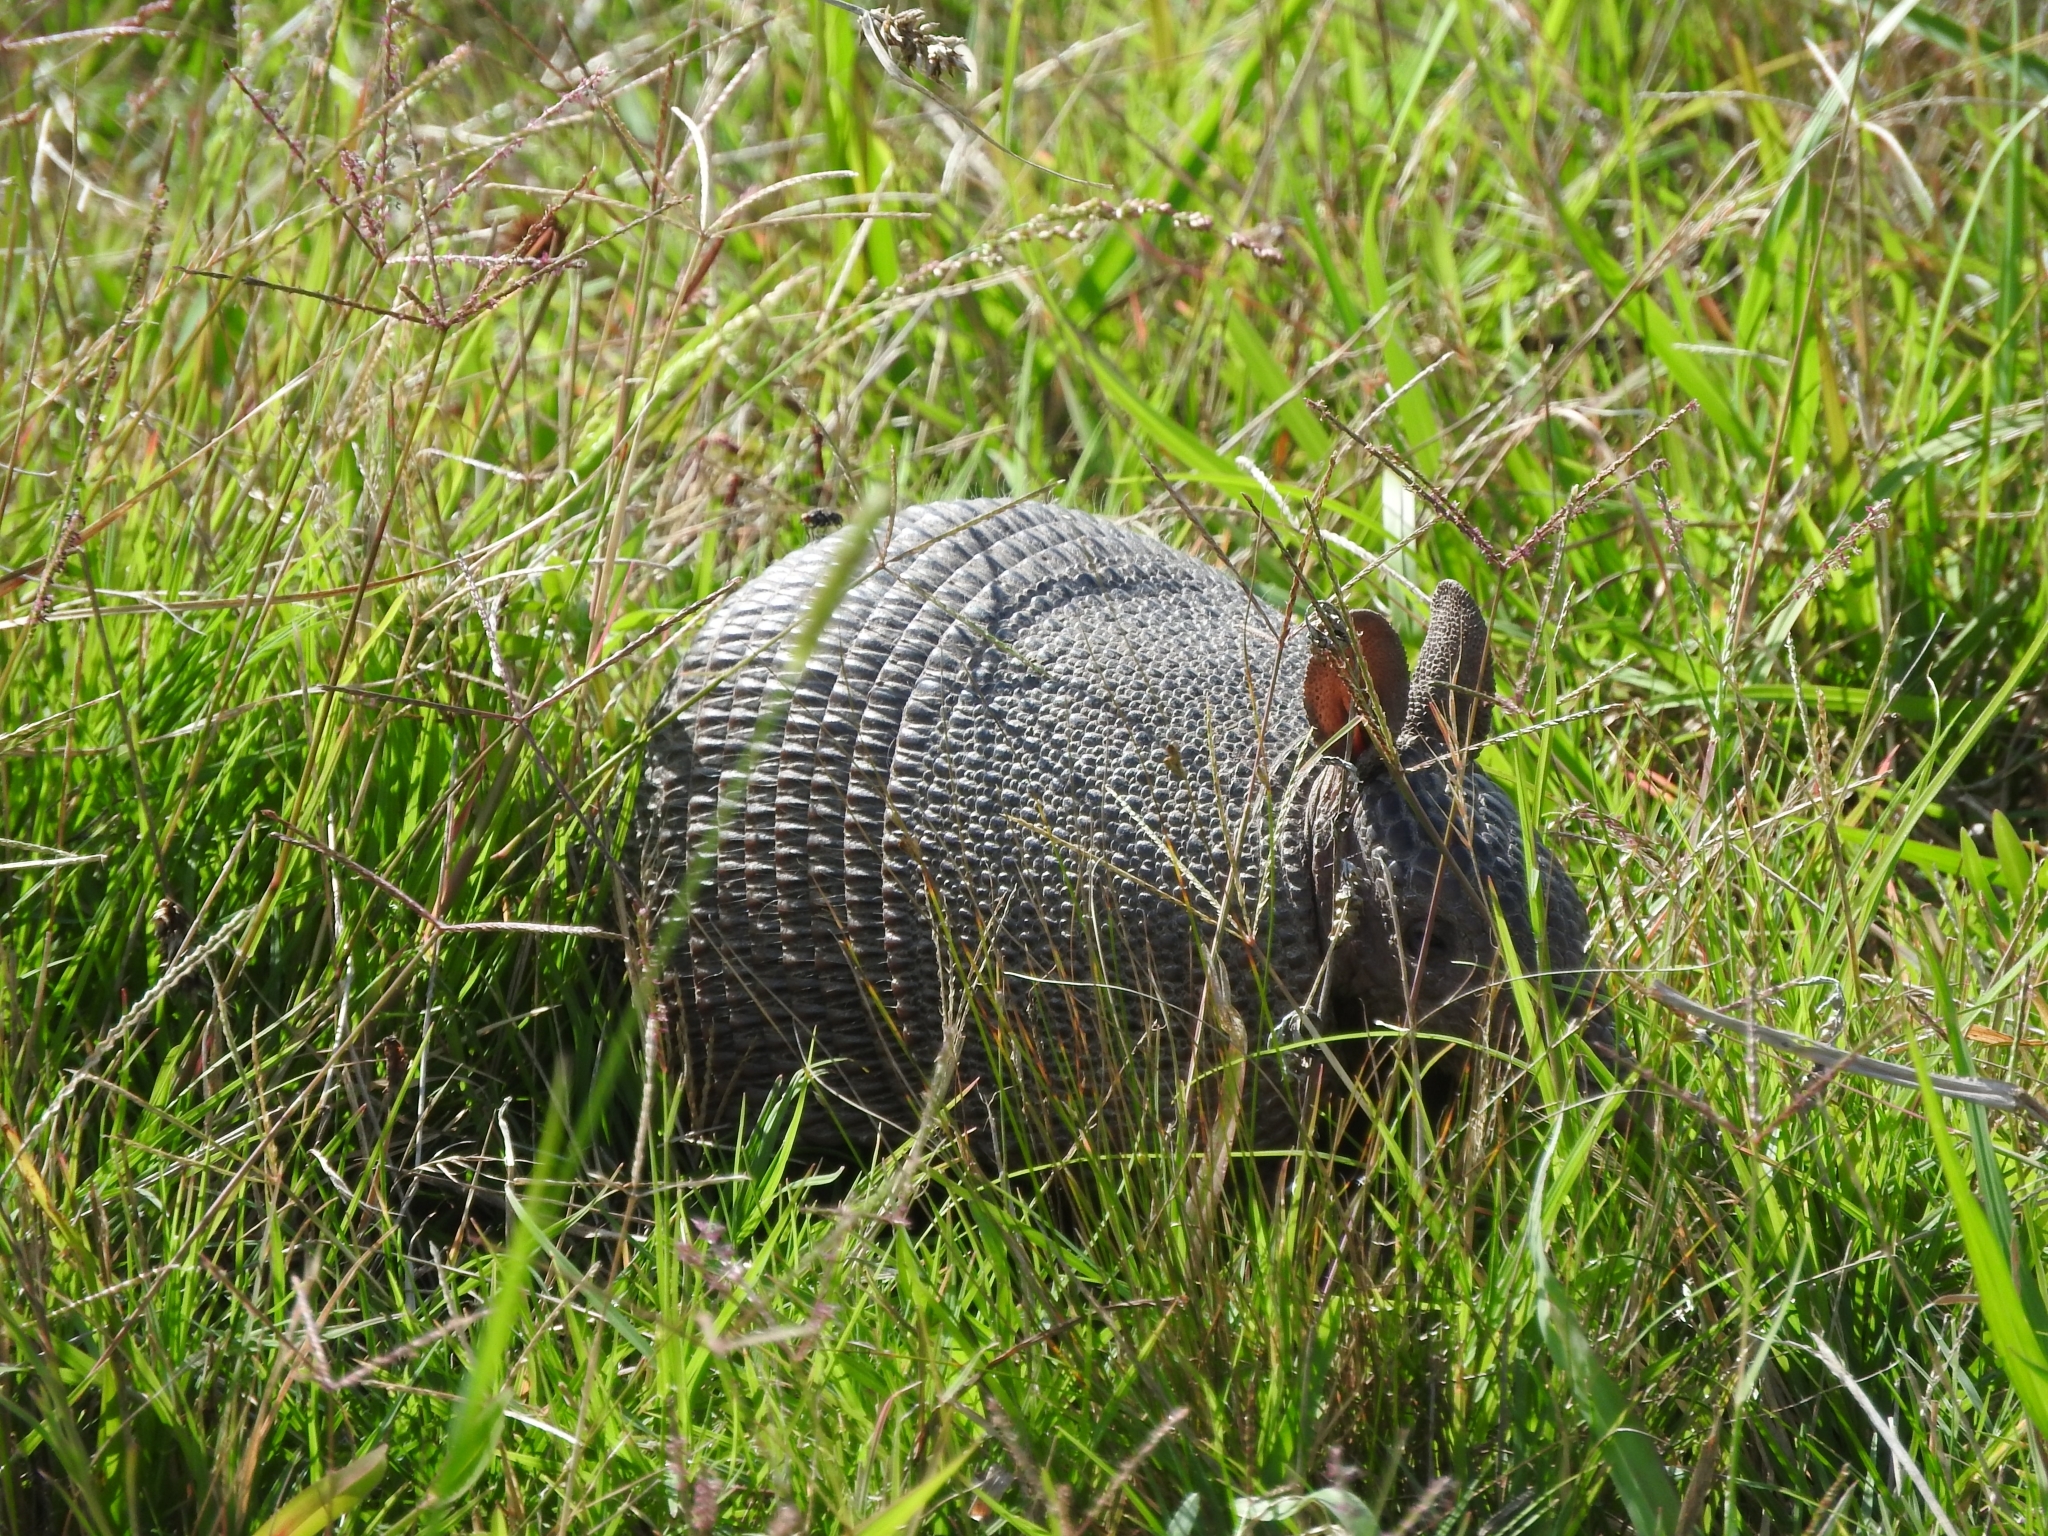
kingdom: Animalia
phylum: Chordata
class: Mammalia
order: Cingulata
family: Dasypodidae
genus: Dasypus
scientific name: Dasypus septemcinctus
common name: Seven-banded armadillo
